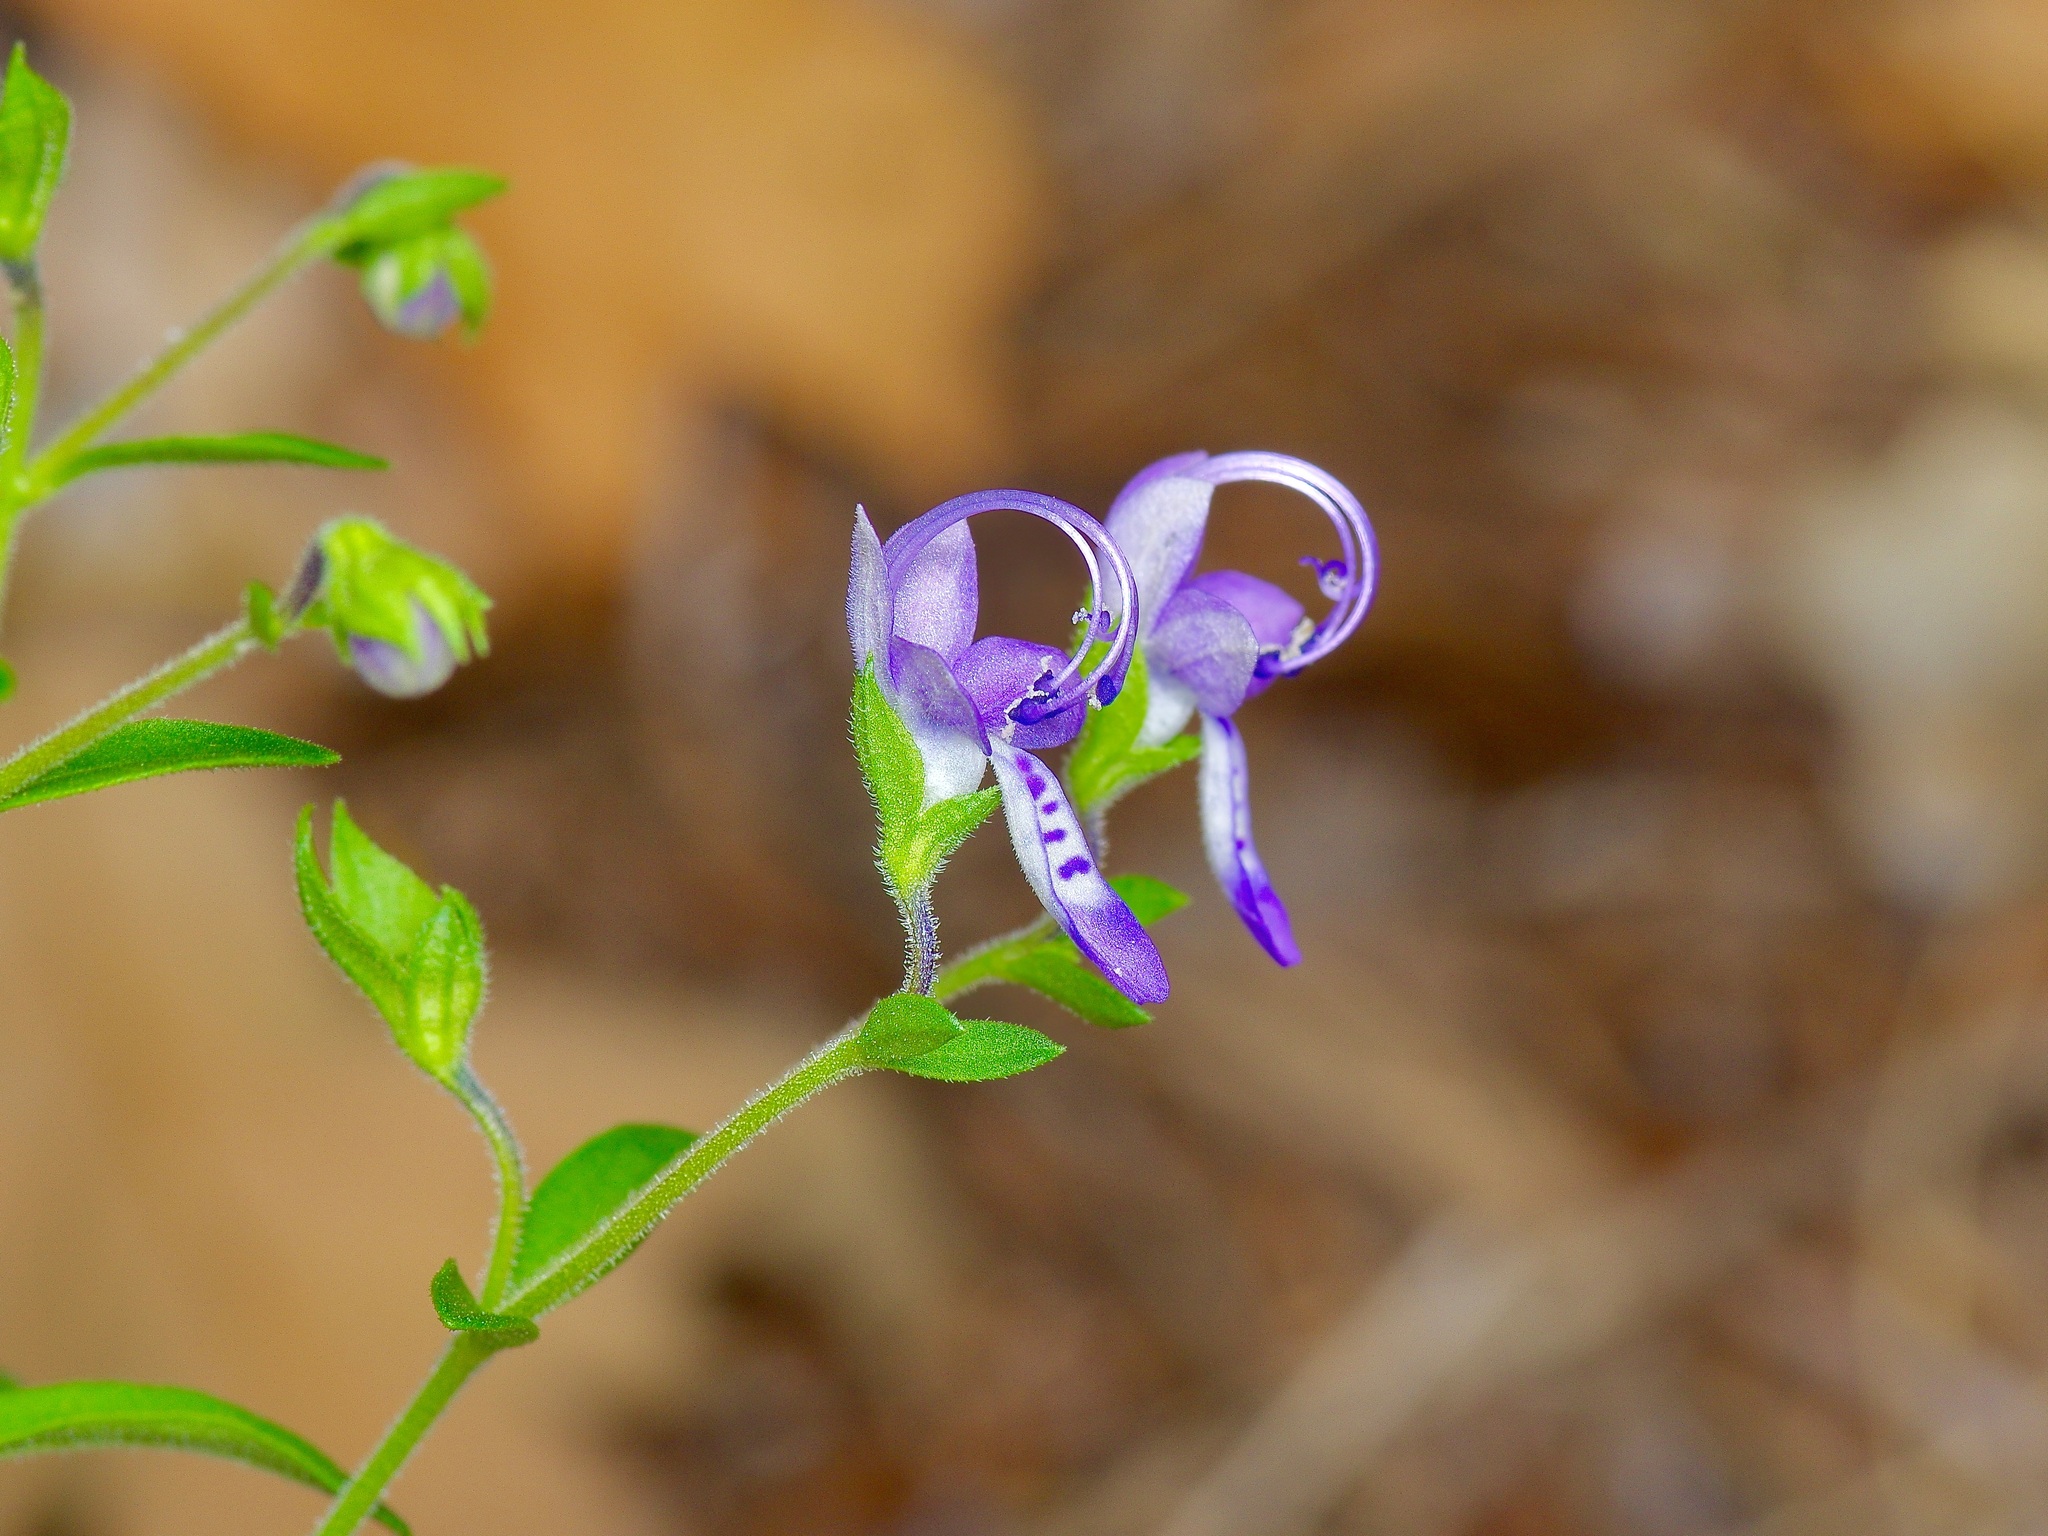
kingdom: Plantae
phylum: Tracheophyta
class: Magnoliopsida
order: Lamiales
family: Lamiaceae
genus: Trichostema
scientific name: Trichostema dichotomum
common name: Bastard pennyroyal
